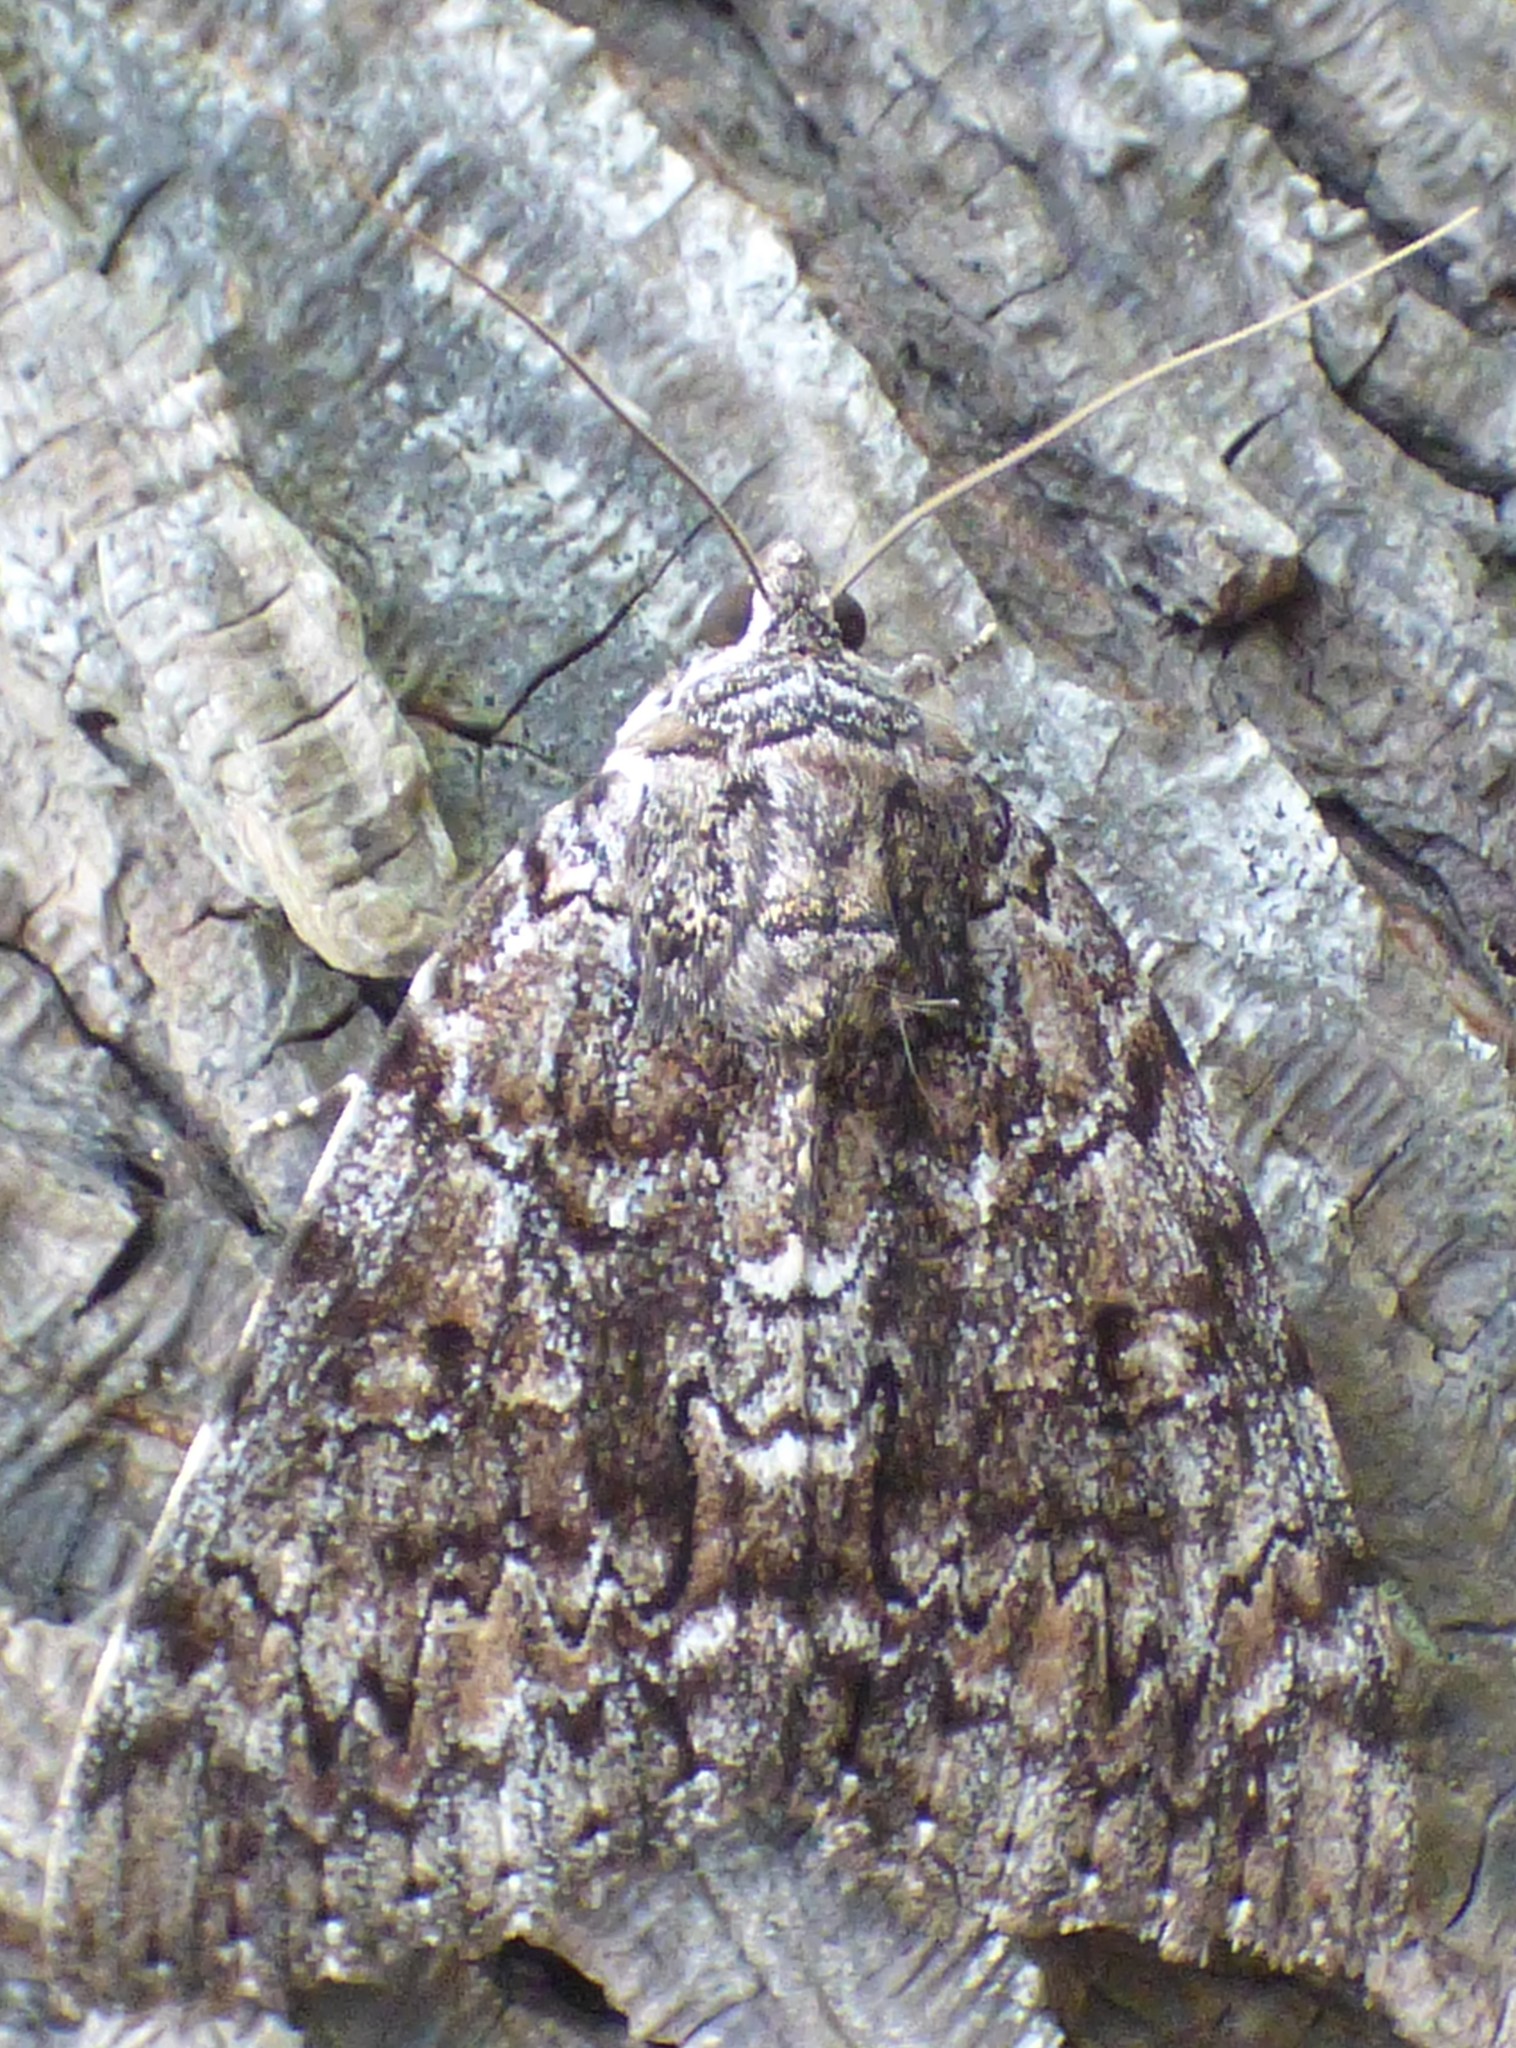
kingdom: Animalia
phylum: Arthropoda
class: Insecta
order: Lepidoptera
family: Erebidae
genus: Catocala
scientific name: Catocala lacrymosa
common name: Tearful underwing
